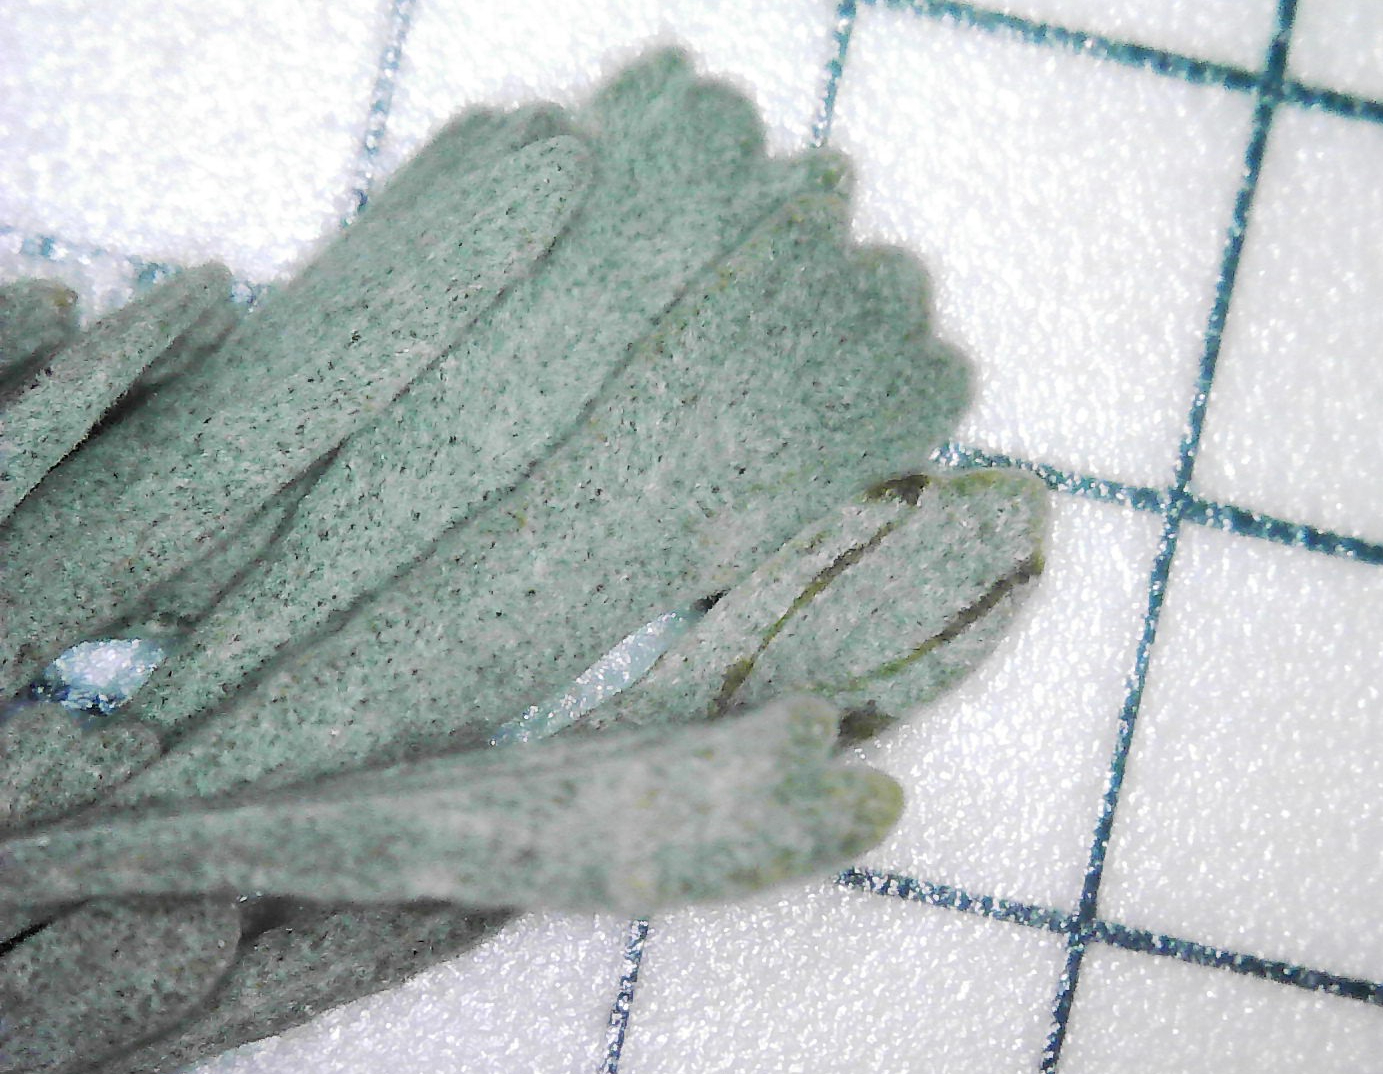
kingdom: Plantae
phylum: Tracheophyta
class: Magnoliopsida
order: Asterales
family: Asteraceae
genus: Artemisia
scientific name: Artemisia tridentata
